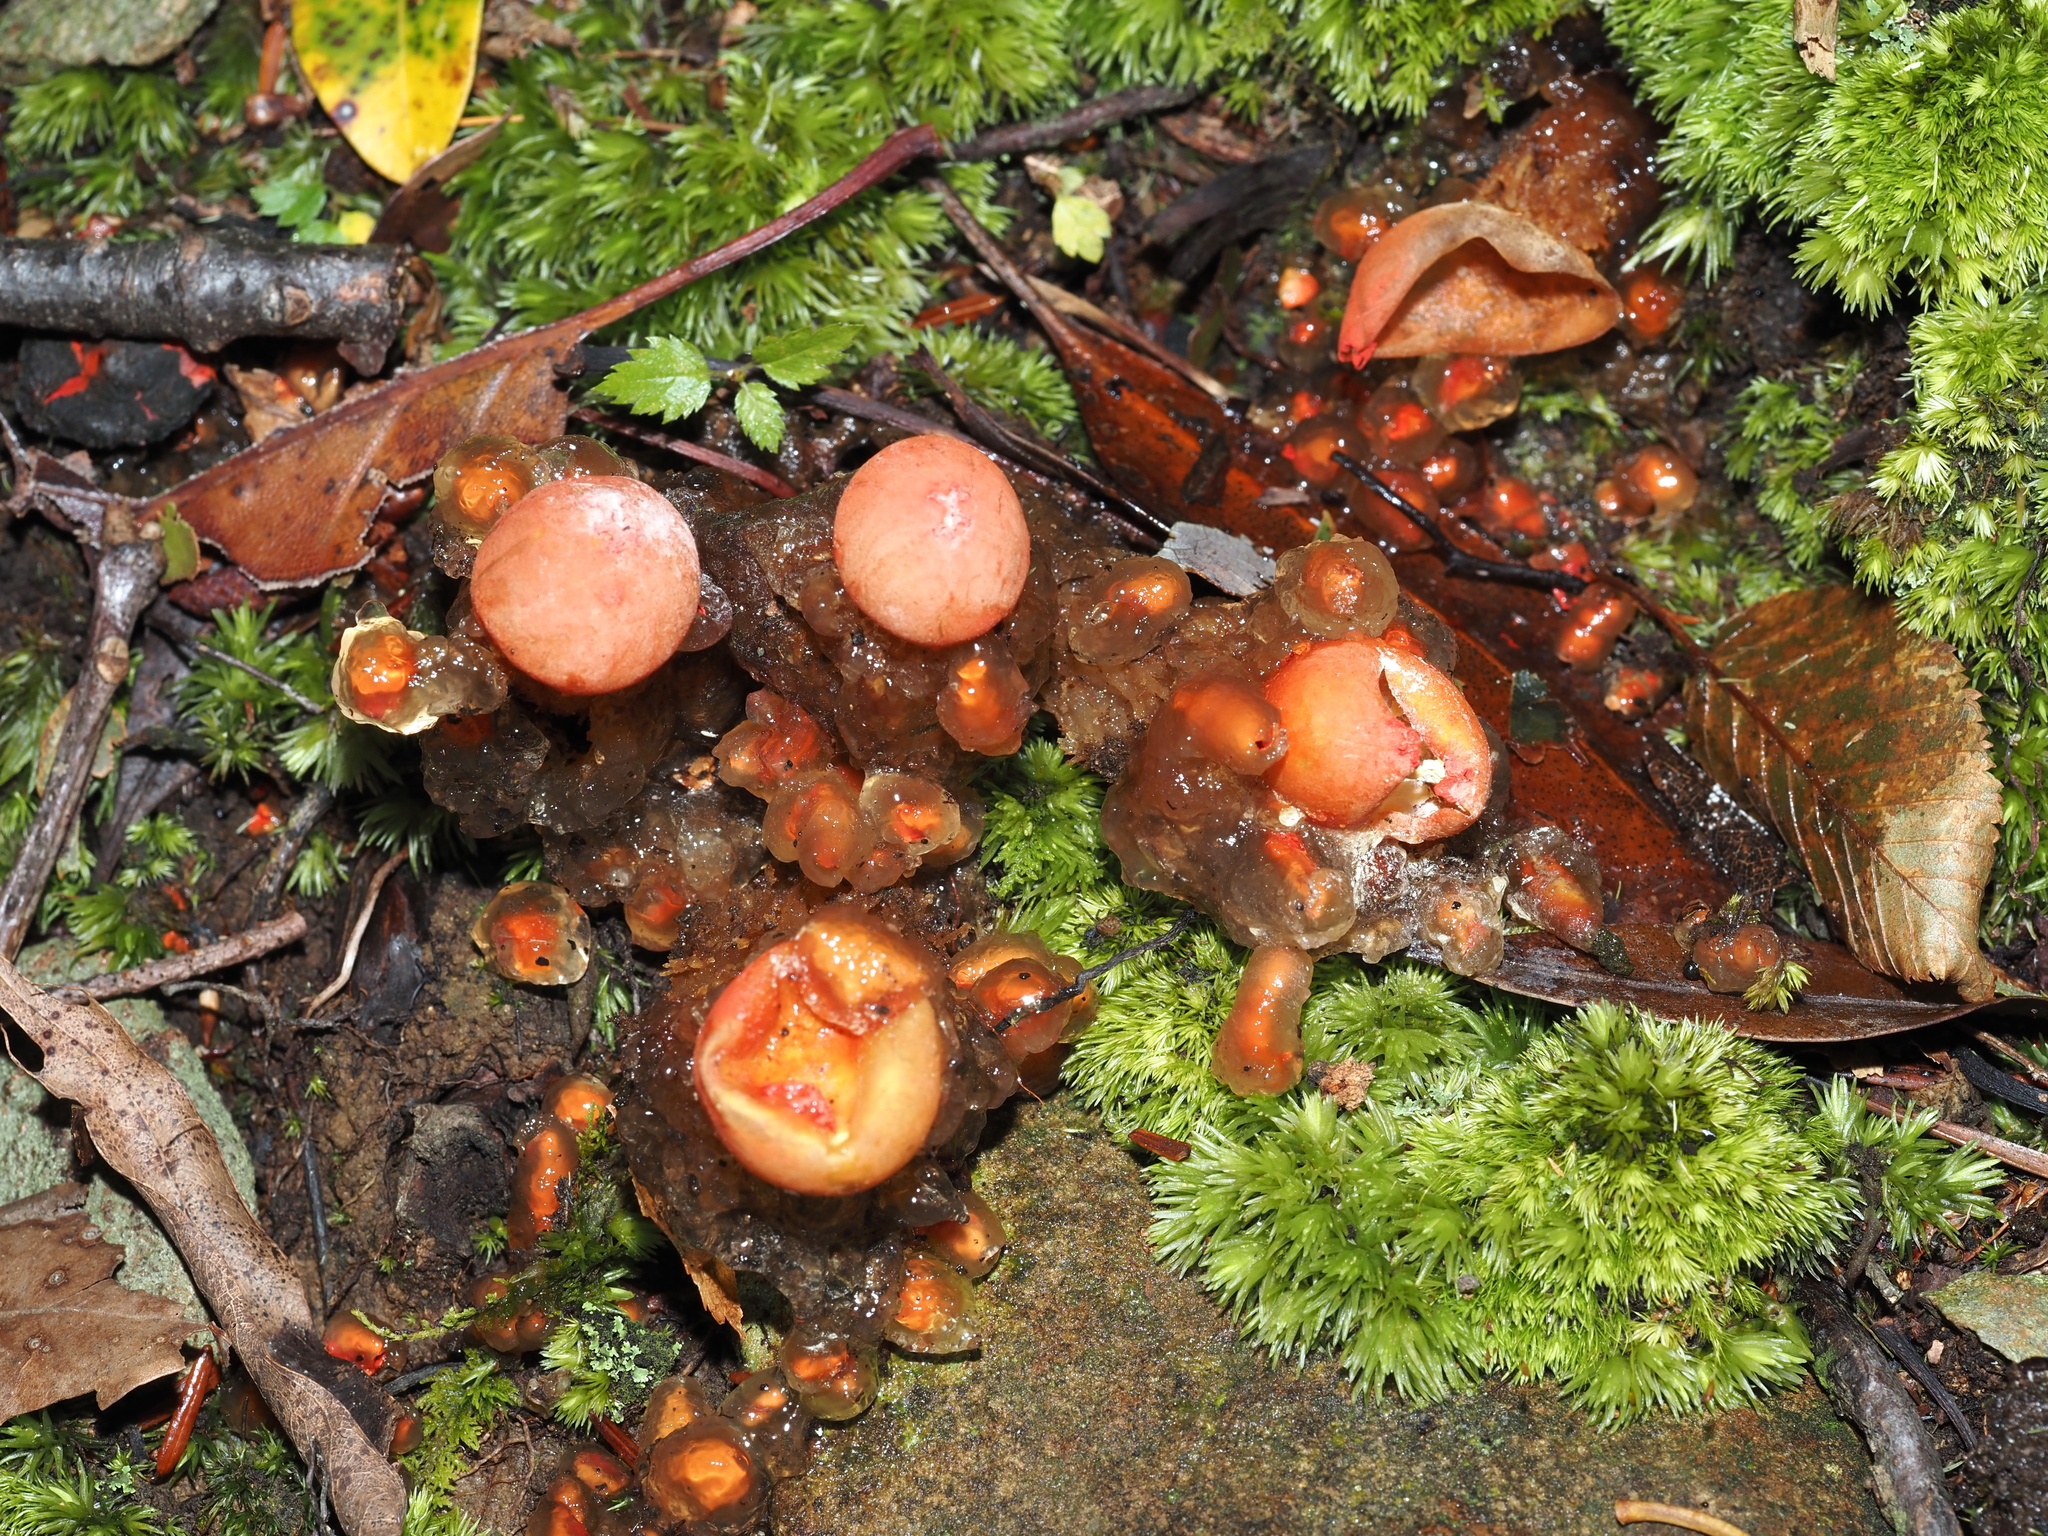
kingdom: Fungi
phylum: Basidiomycota
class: Agaricomycetes
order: Boletales
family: Calostomataceae
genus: Calostoma
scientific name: Calostoma cinnabarinum
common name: Stalked puffball-in-aspic
